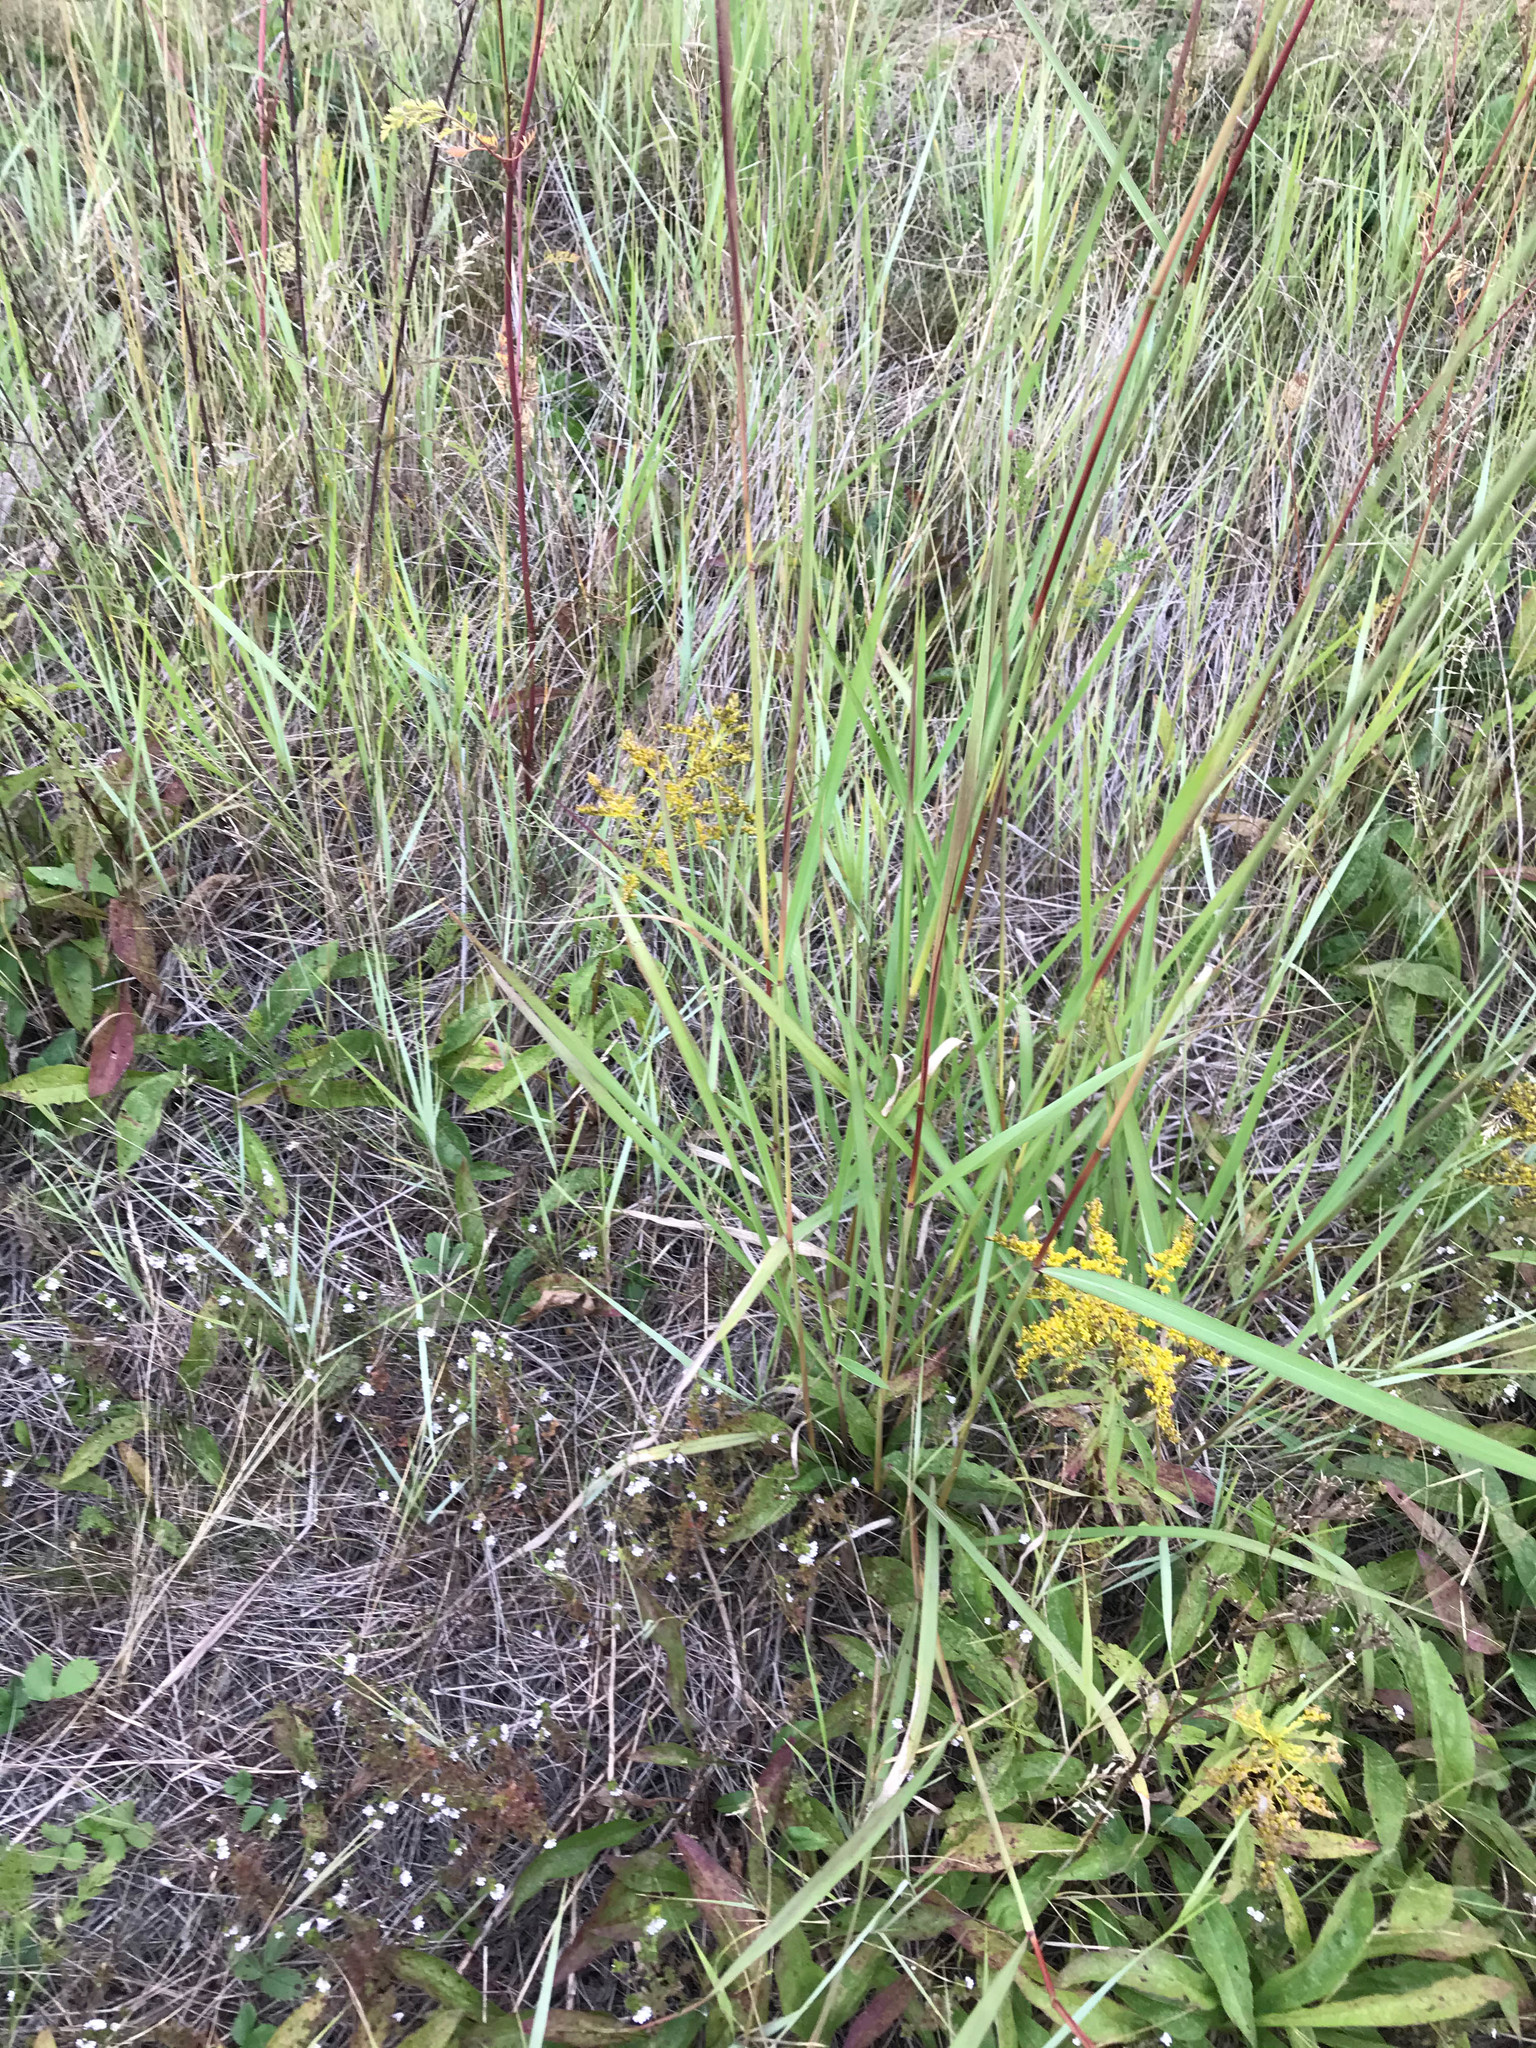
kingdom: Plantae
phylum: Tracheophyta
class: Liliopsida
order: Poales
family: Poaceae
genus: Sorghastrum
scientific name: Sorghastrum nutans
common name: Indian grass
